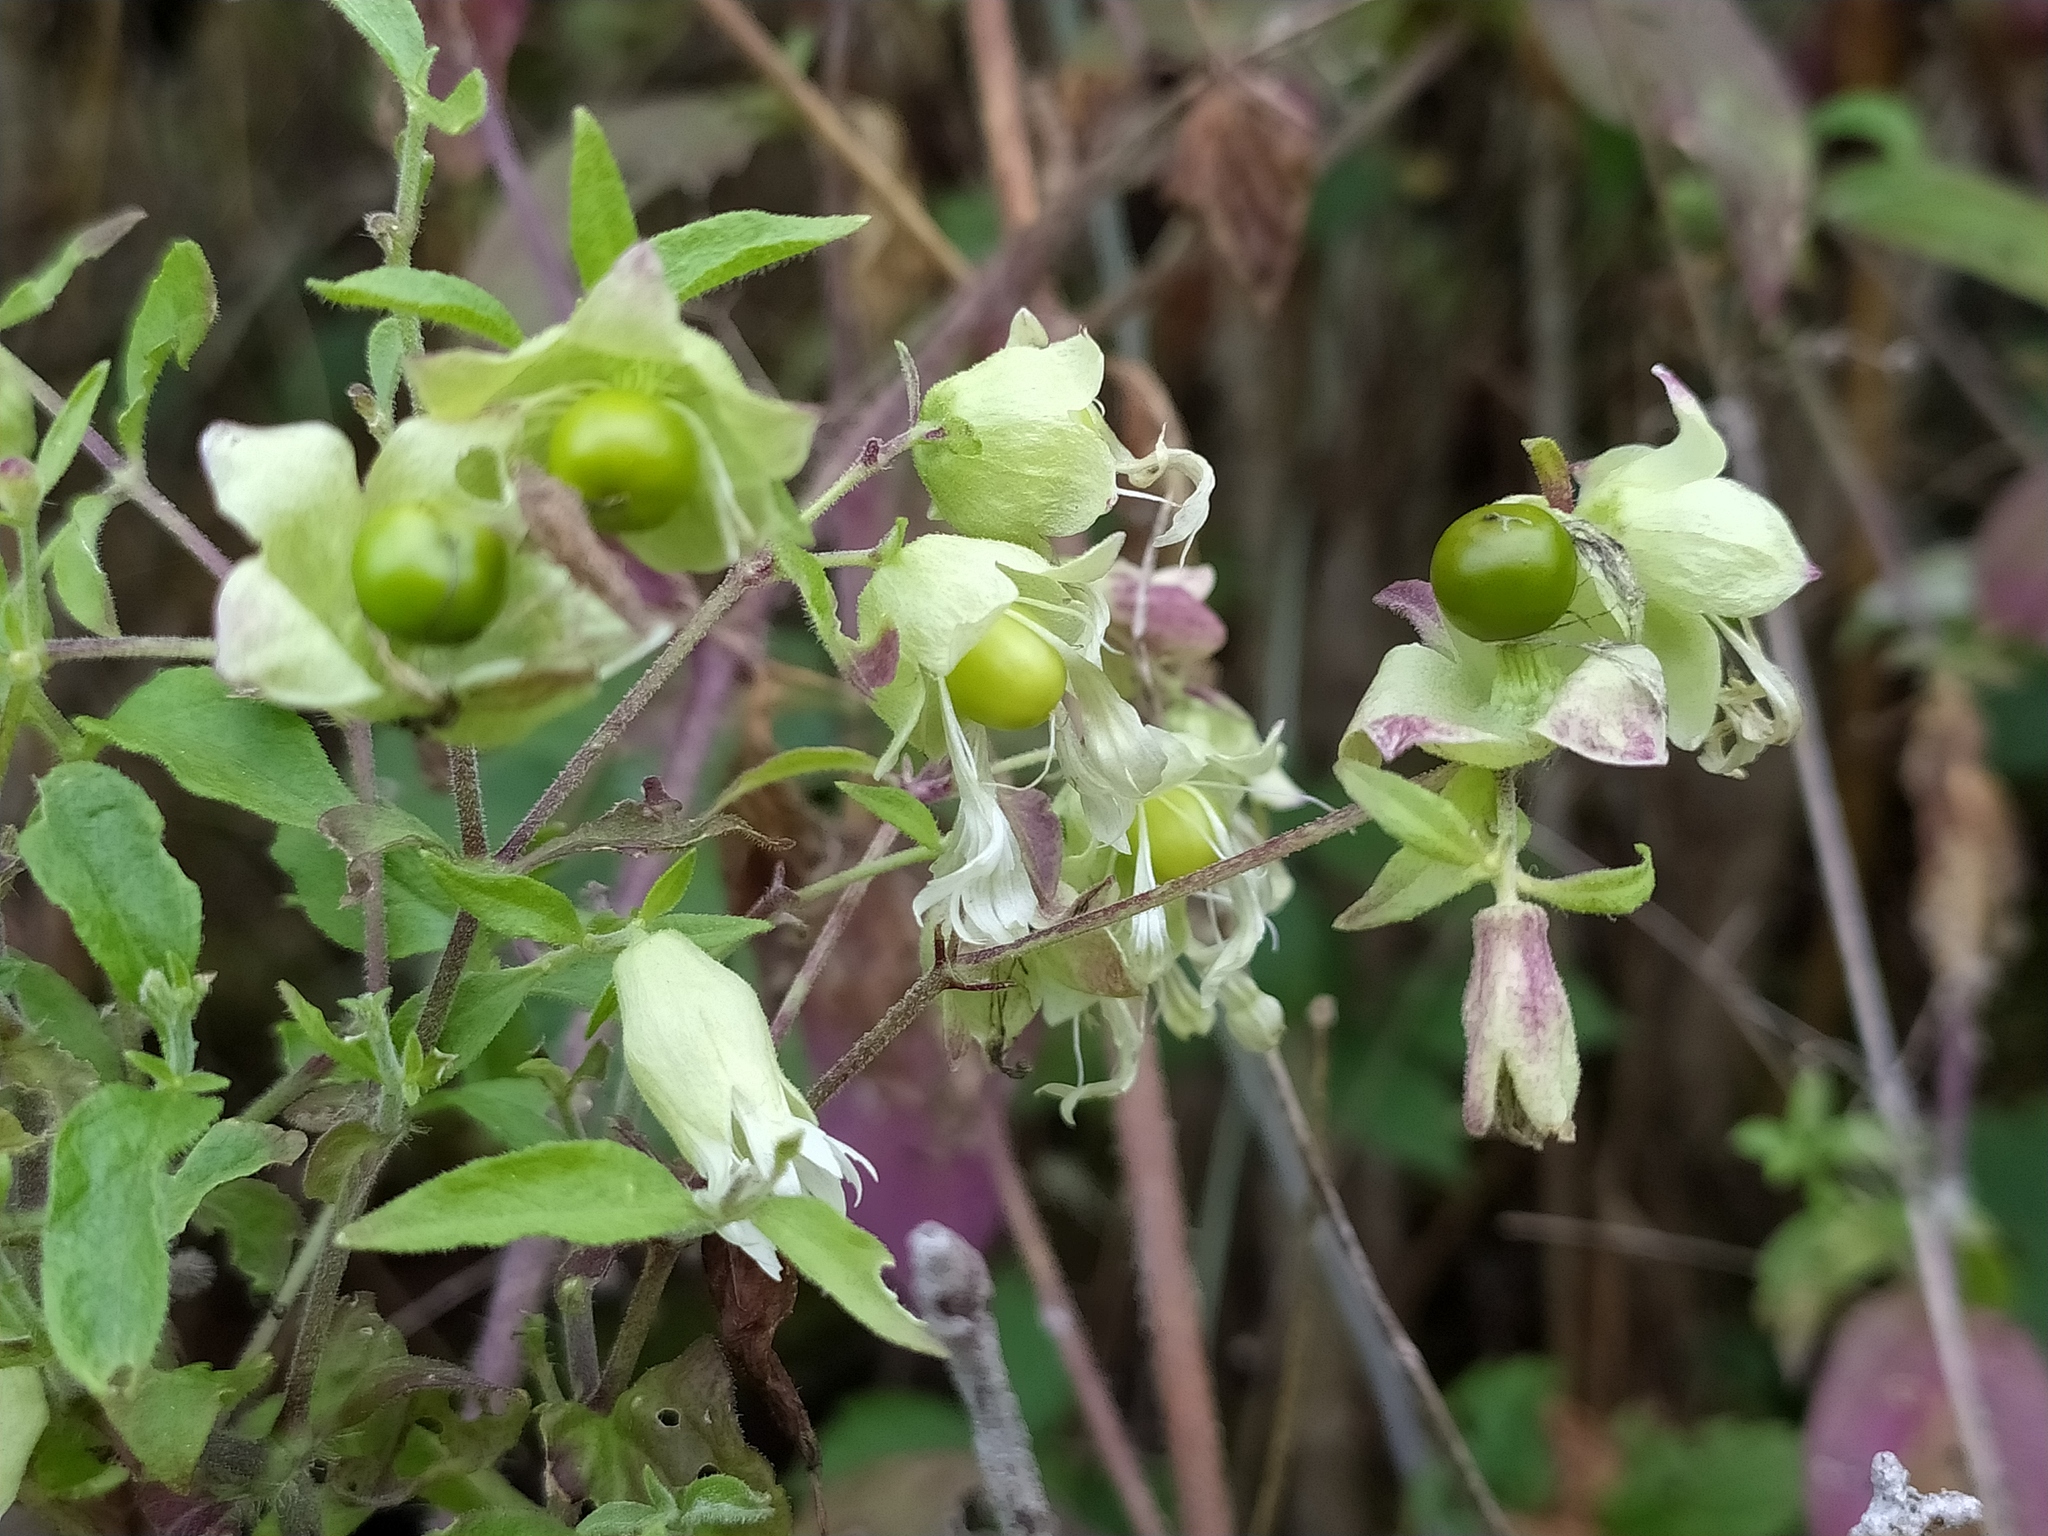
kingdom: Plantae
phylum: Tracheophyta
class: Magnoliopsida
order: Caryophyllales
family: Caryophyllaceae
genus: Silene
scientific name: Silene baccifera
